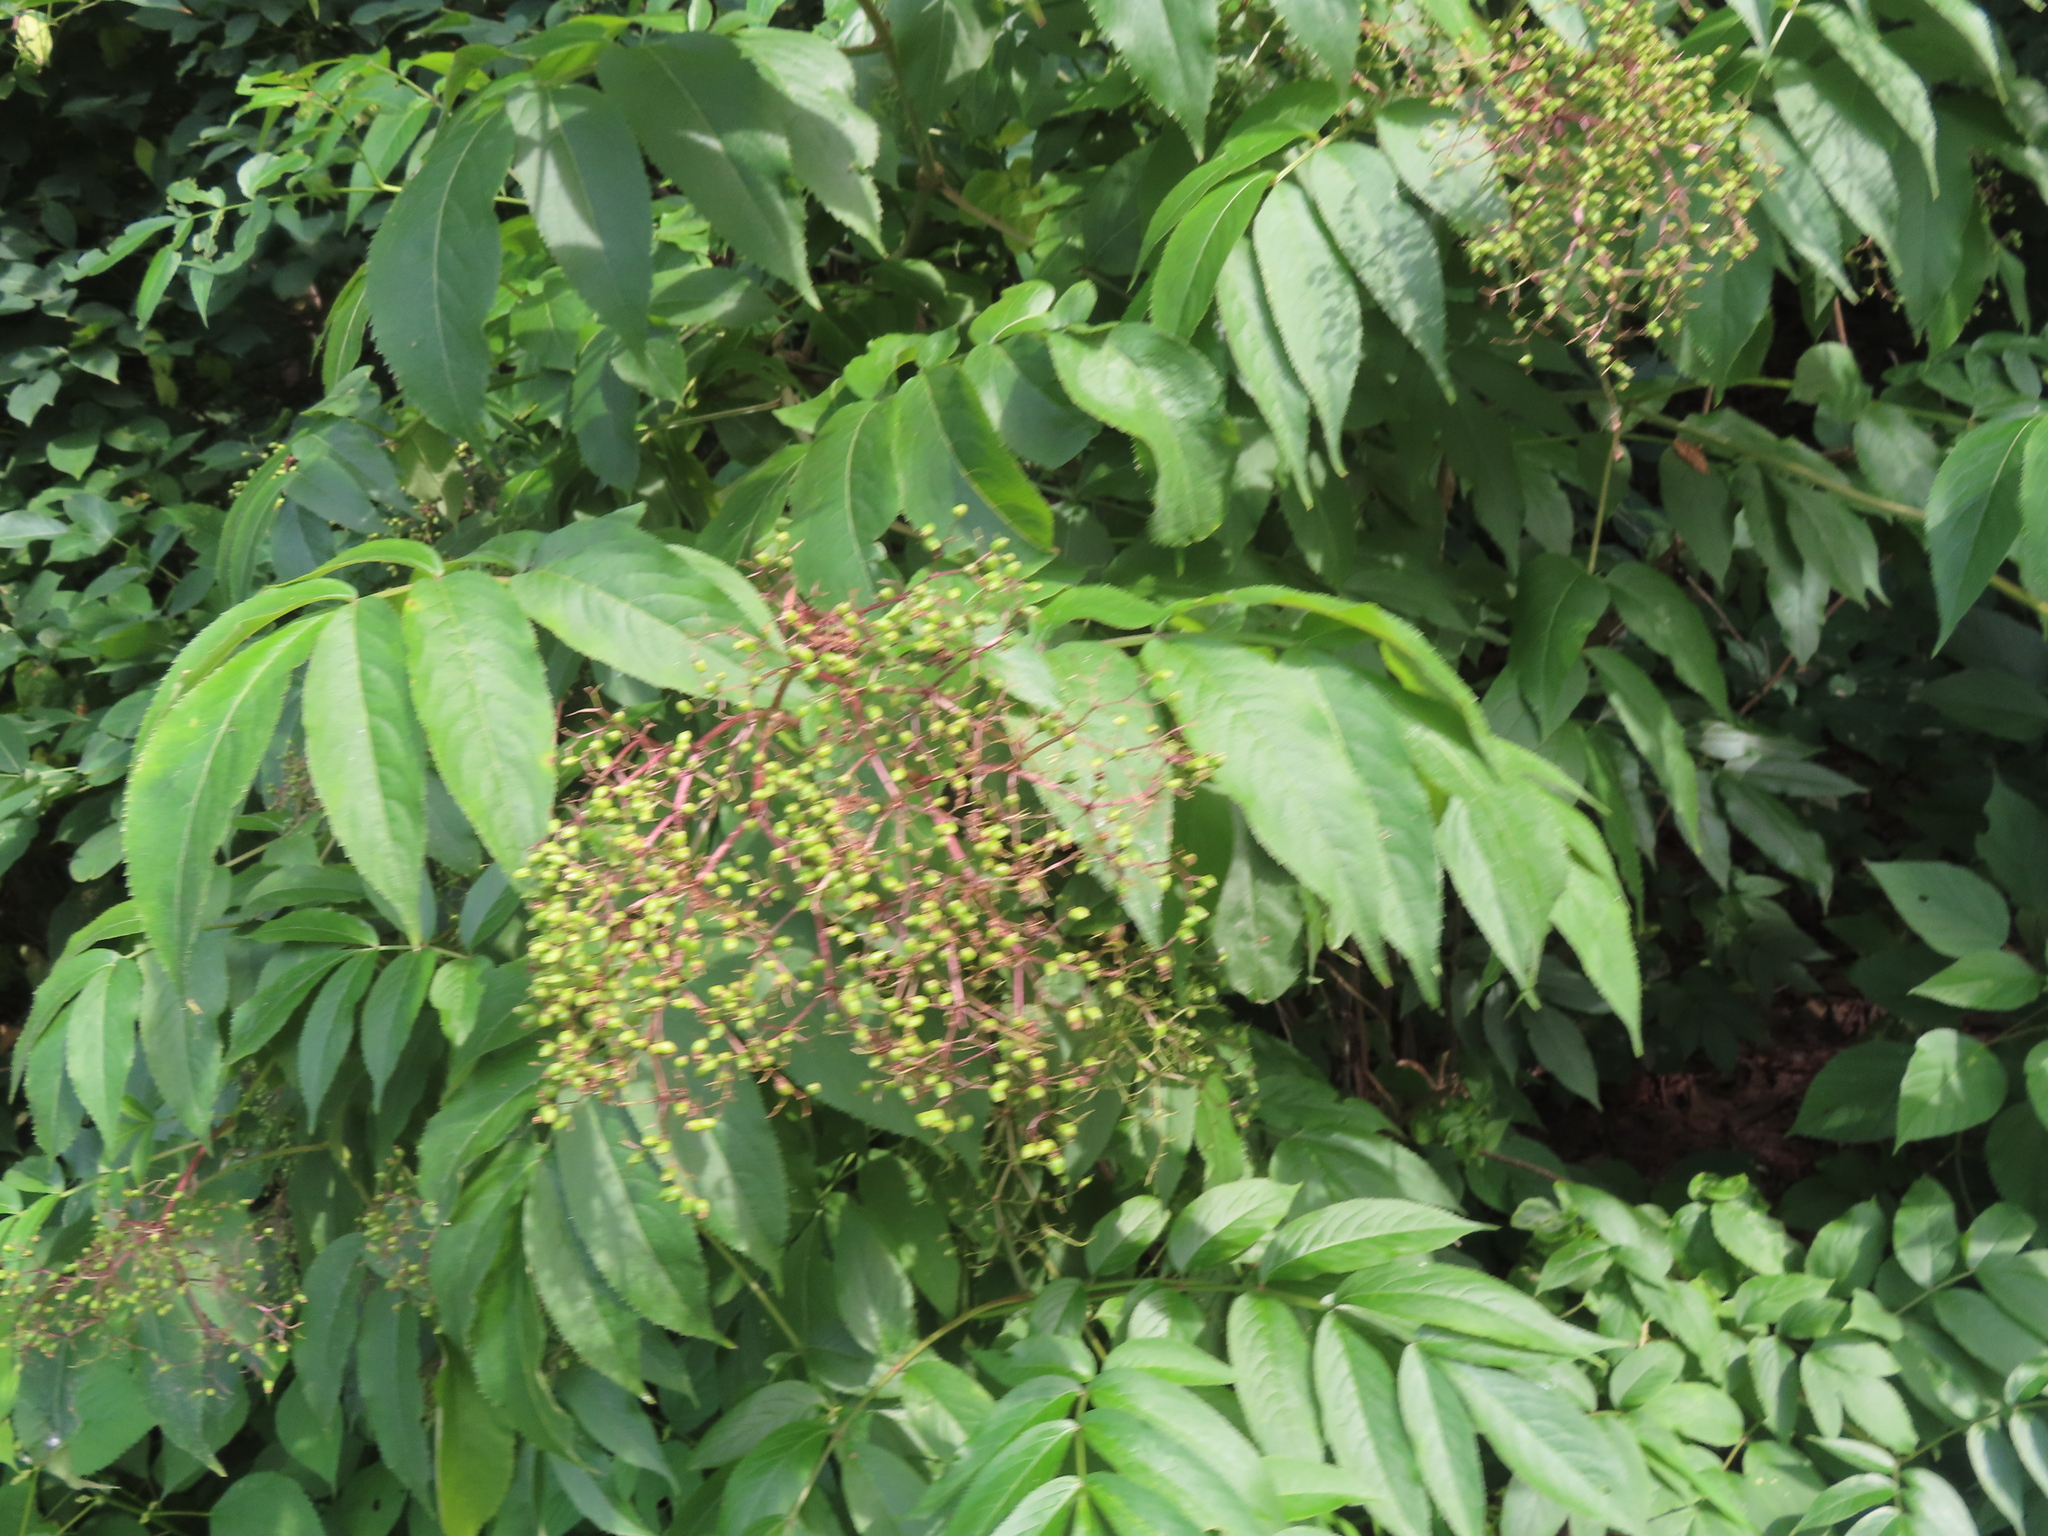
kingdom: Plantae
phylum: Tracheophyta
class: Magnoliopsida
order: Dipsacales
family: Viburnaceae
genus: Sambucus
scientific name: Sambucus canadensis
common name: American elder
